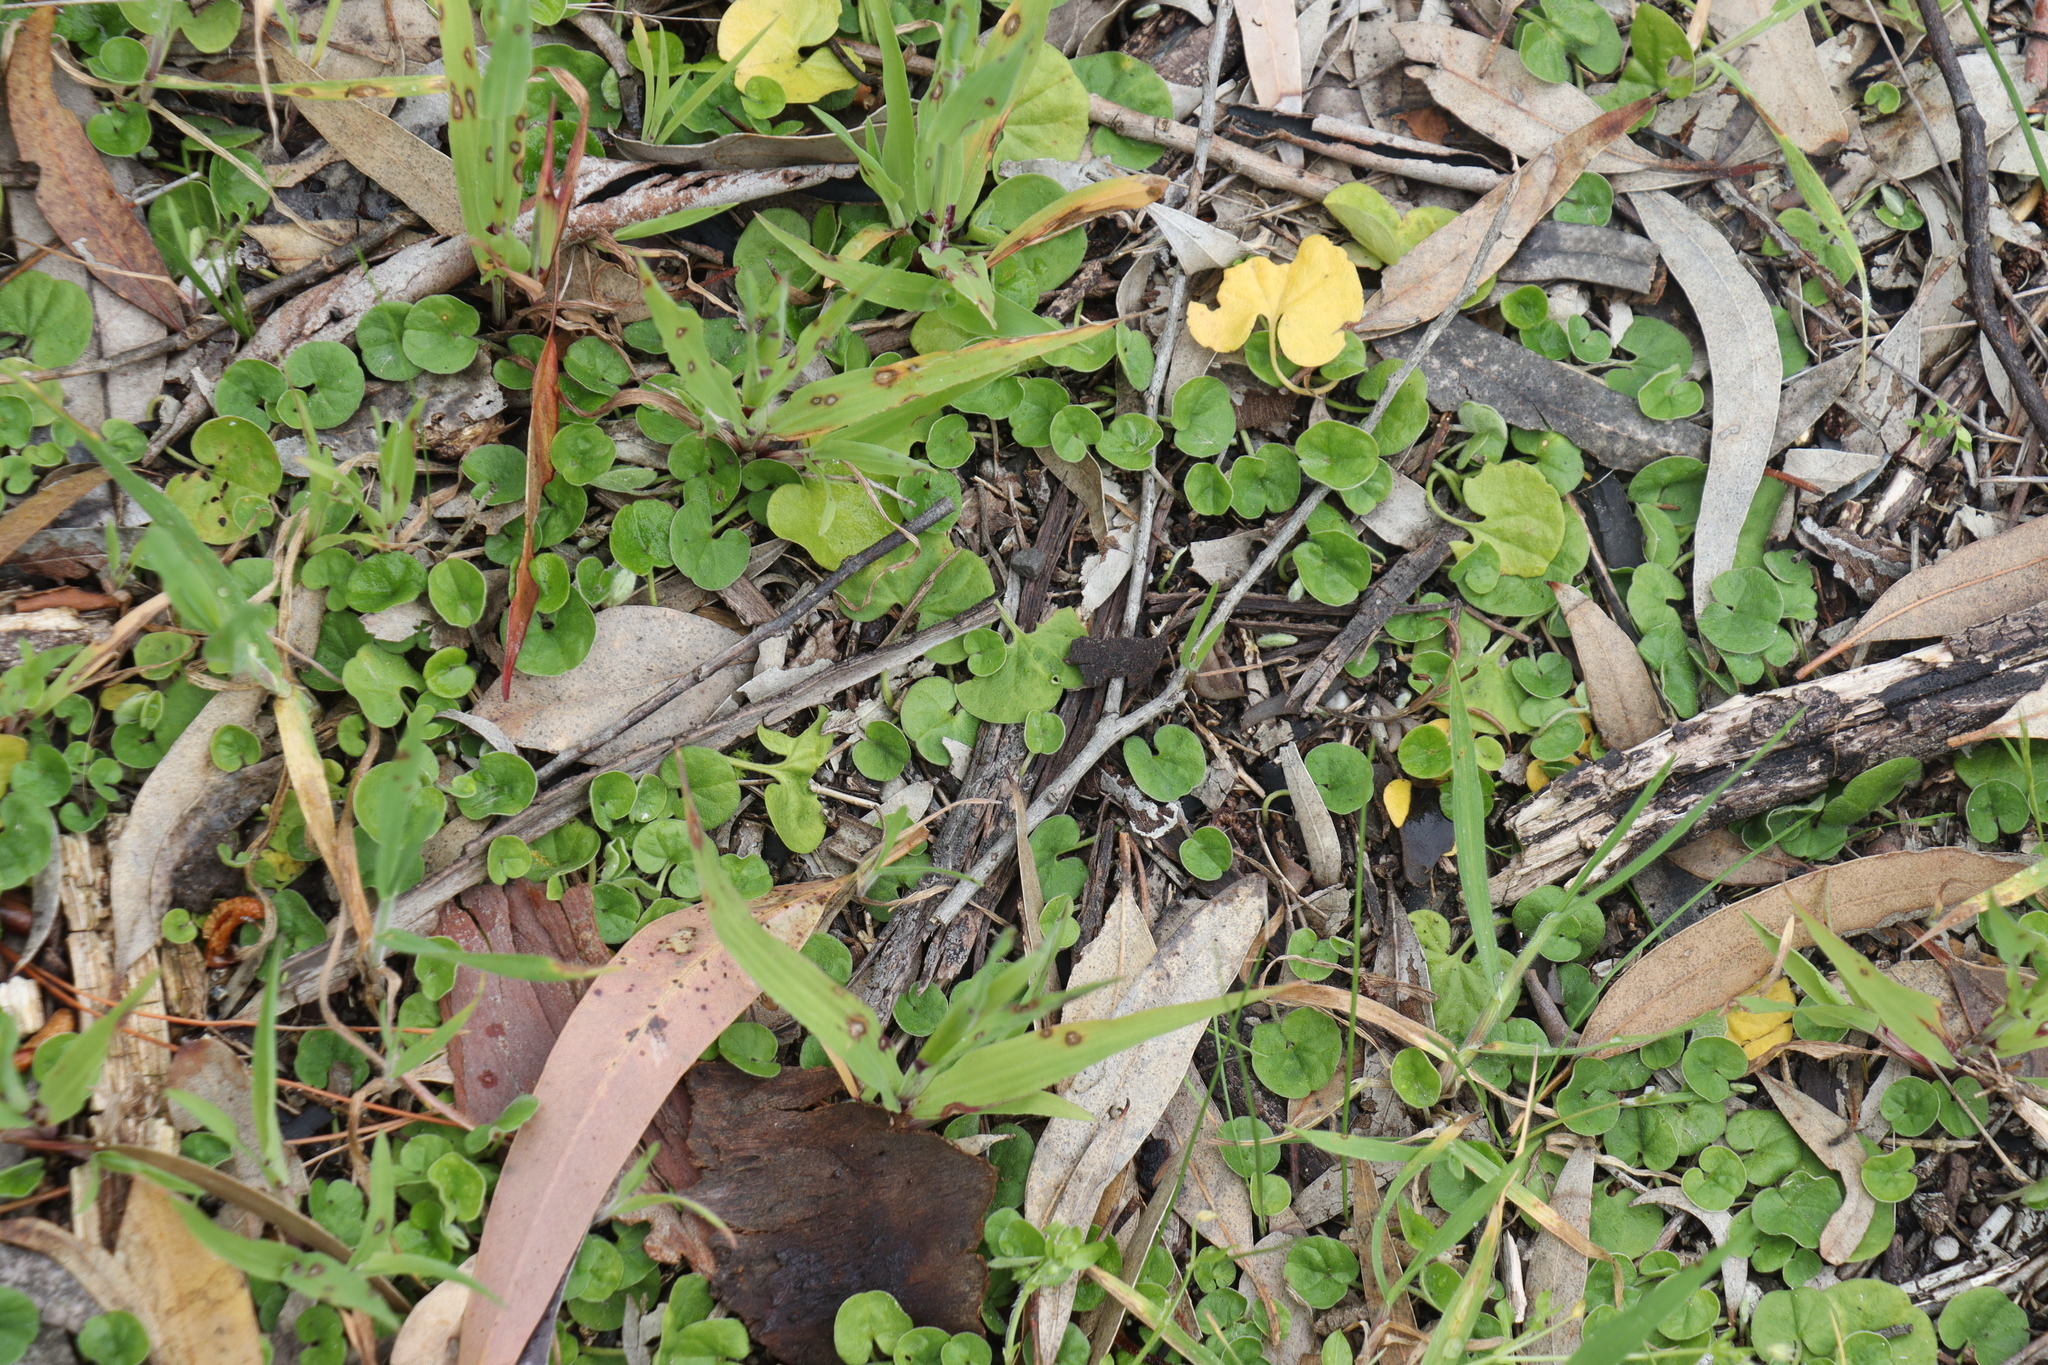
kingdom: Plantae
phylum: Tracheophyta
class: Magnoliopsida
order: Solanales
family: Convolvulaceae
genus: Dichondra
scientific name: Dichondra repens
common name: Kidneyweed
